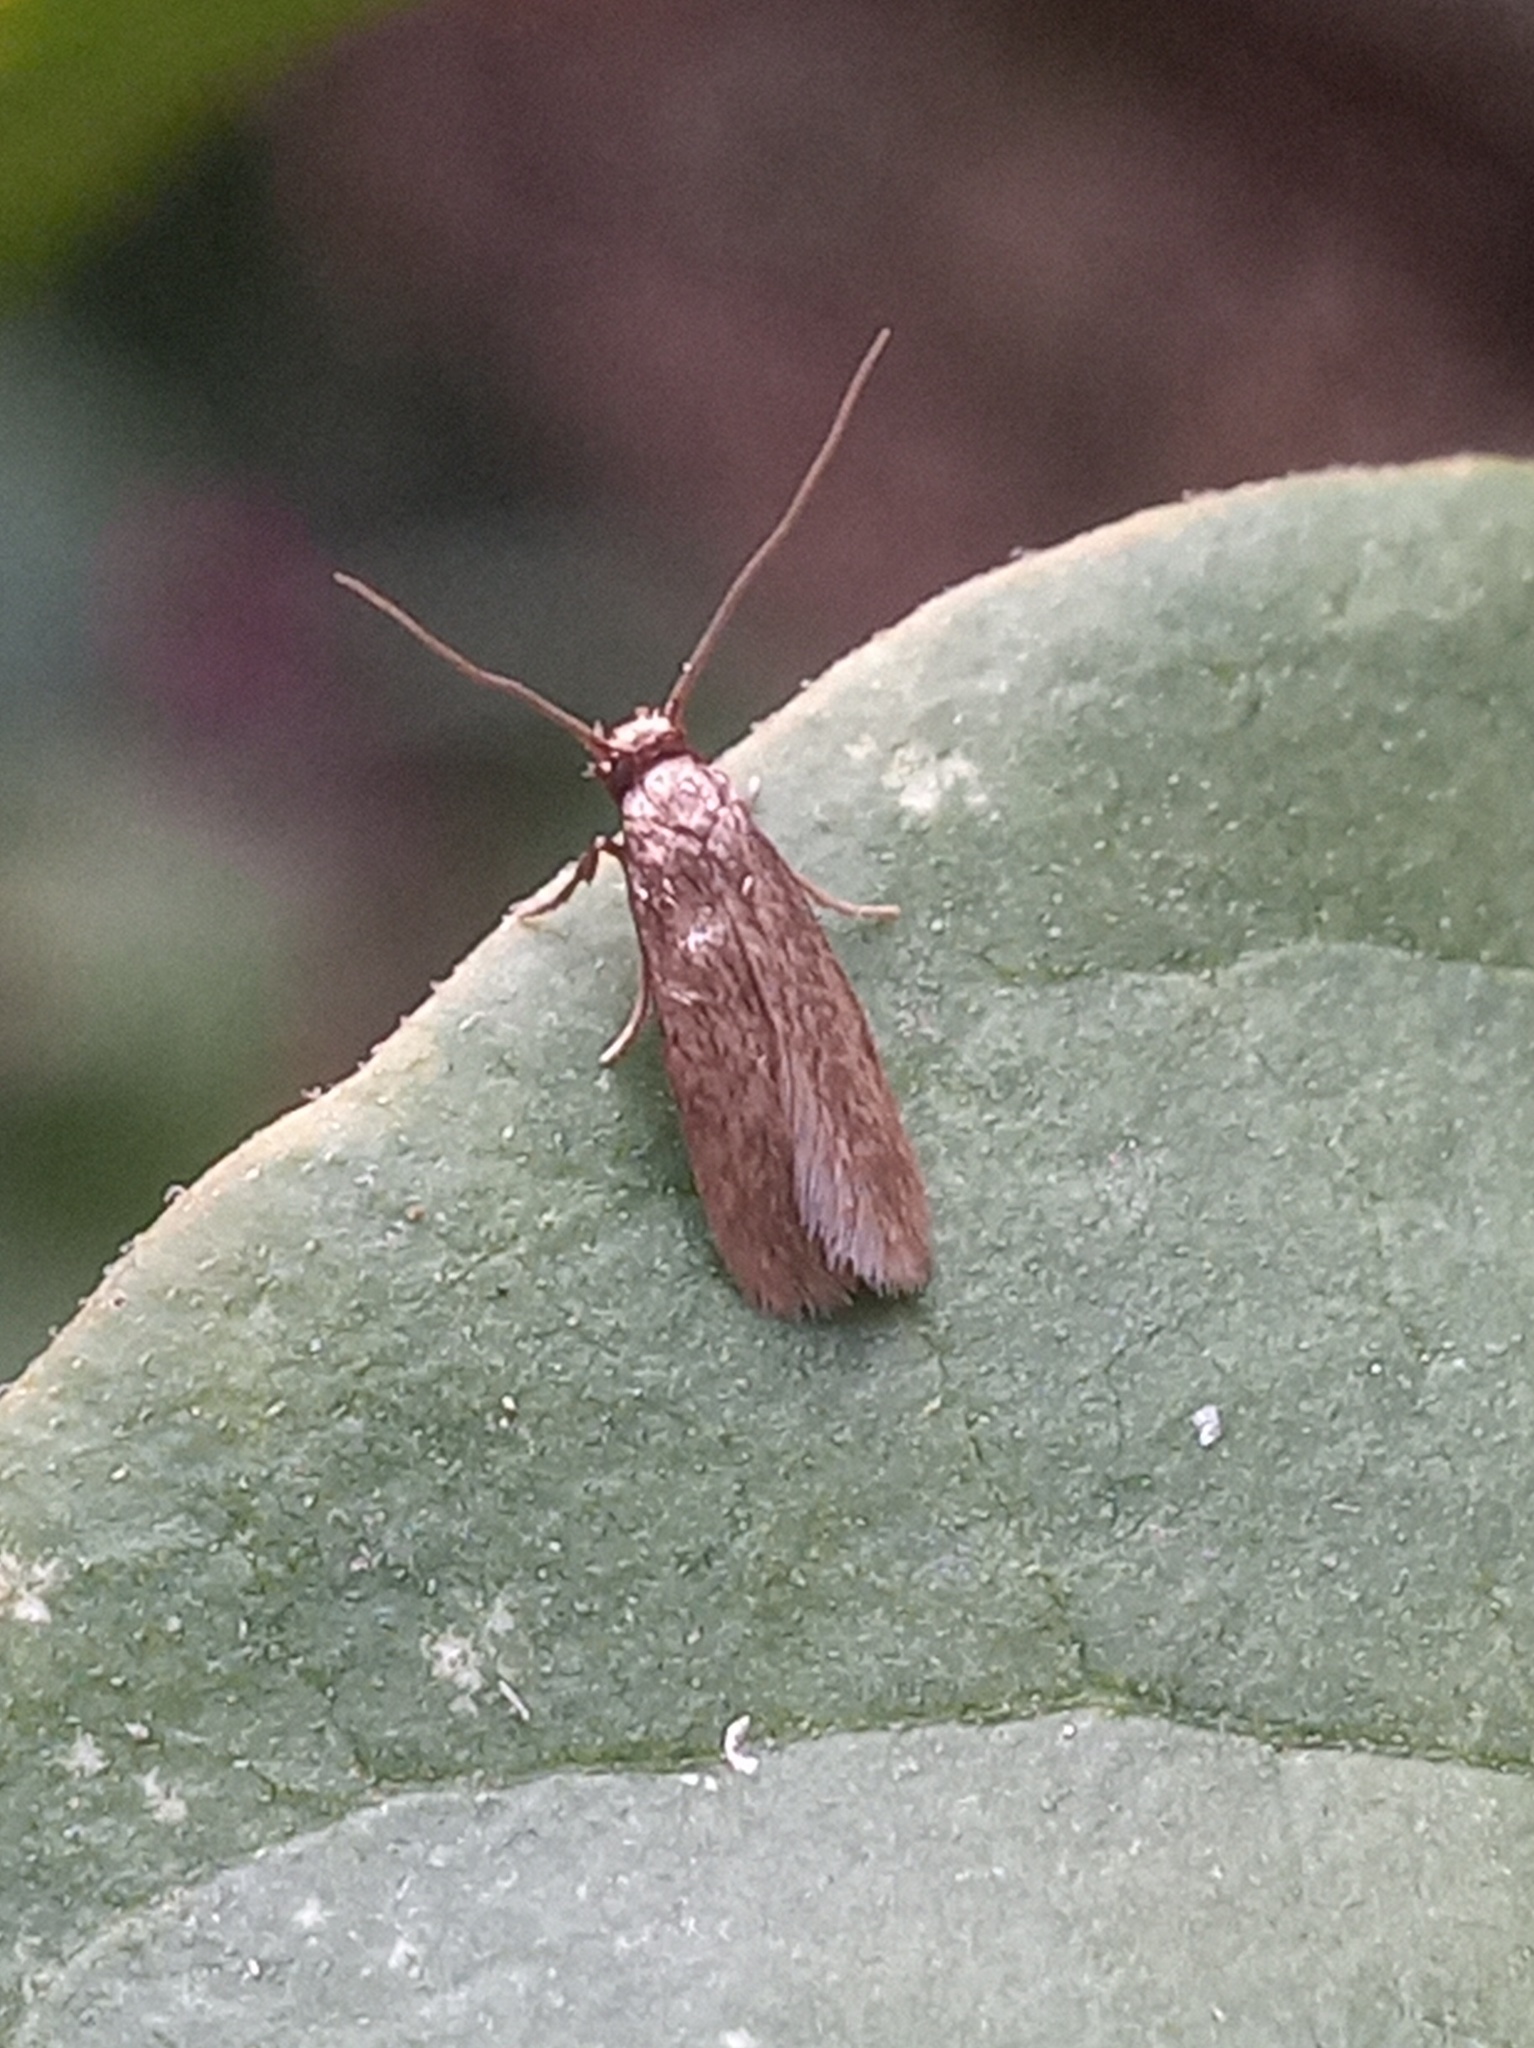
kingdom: Animalia
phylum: Arthropoda
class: Insecta
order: Lepidoptera
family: Tineidae
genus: Opogona
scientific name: Opogona omoscopa
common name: Moth
